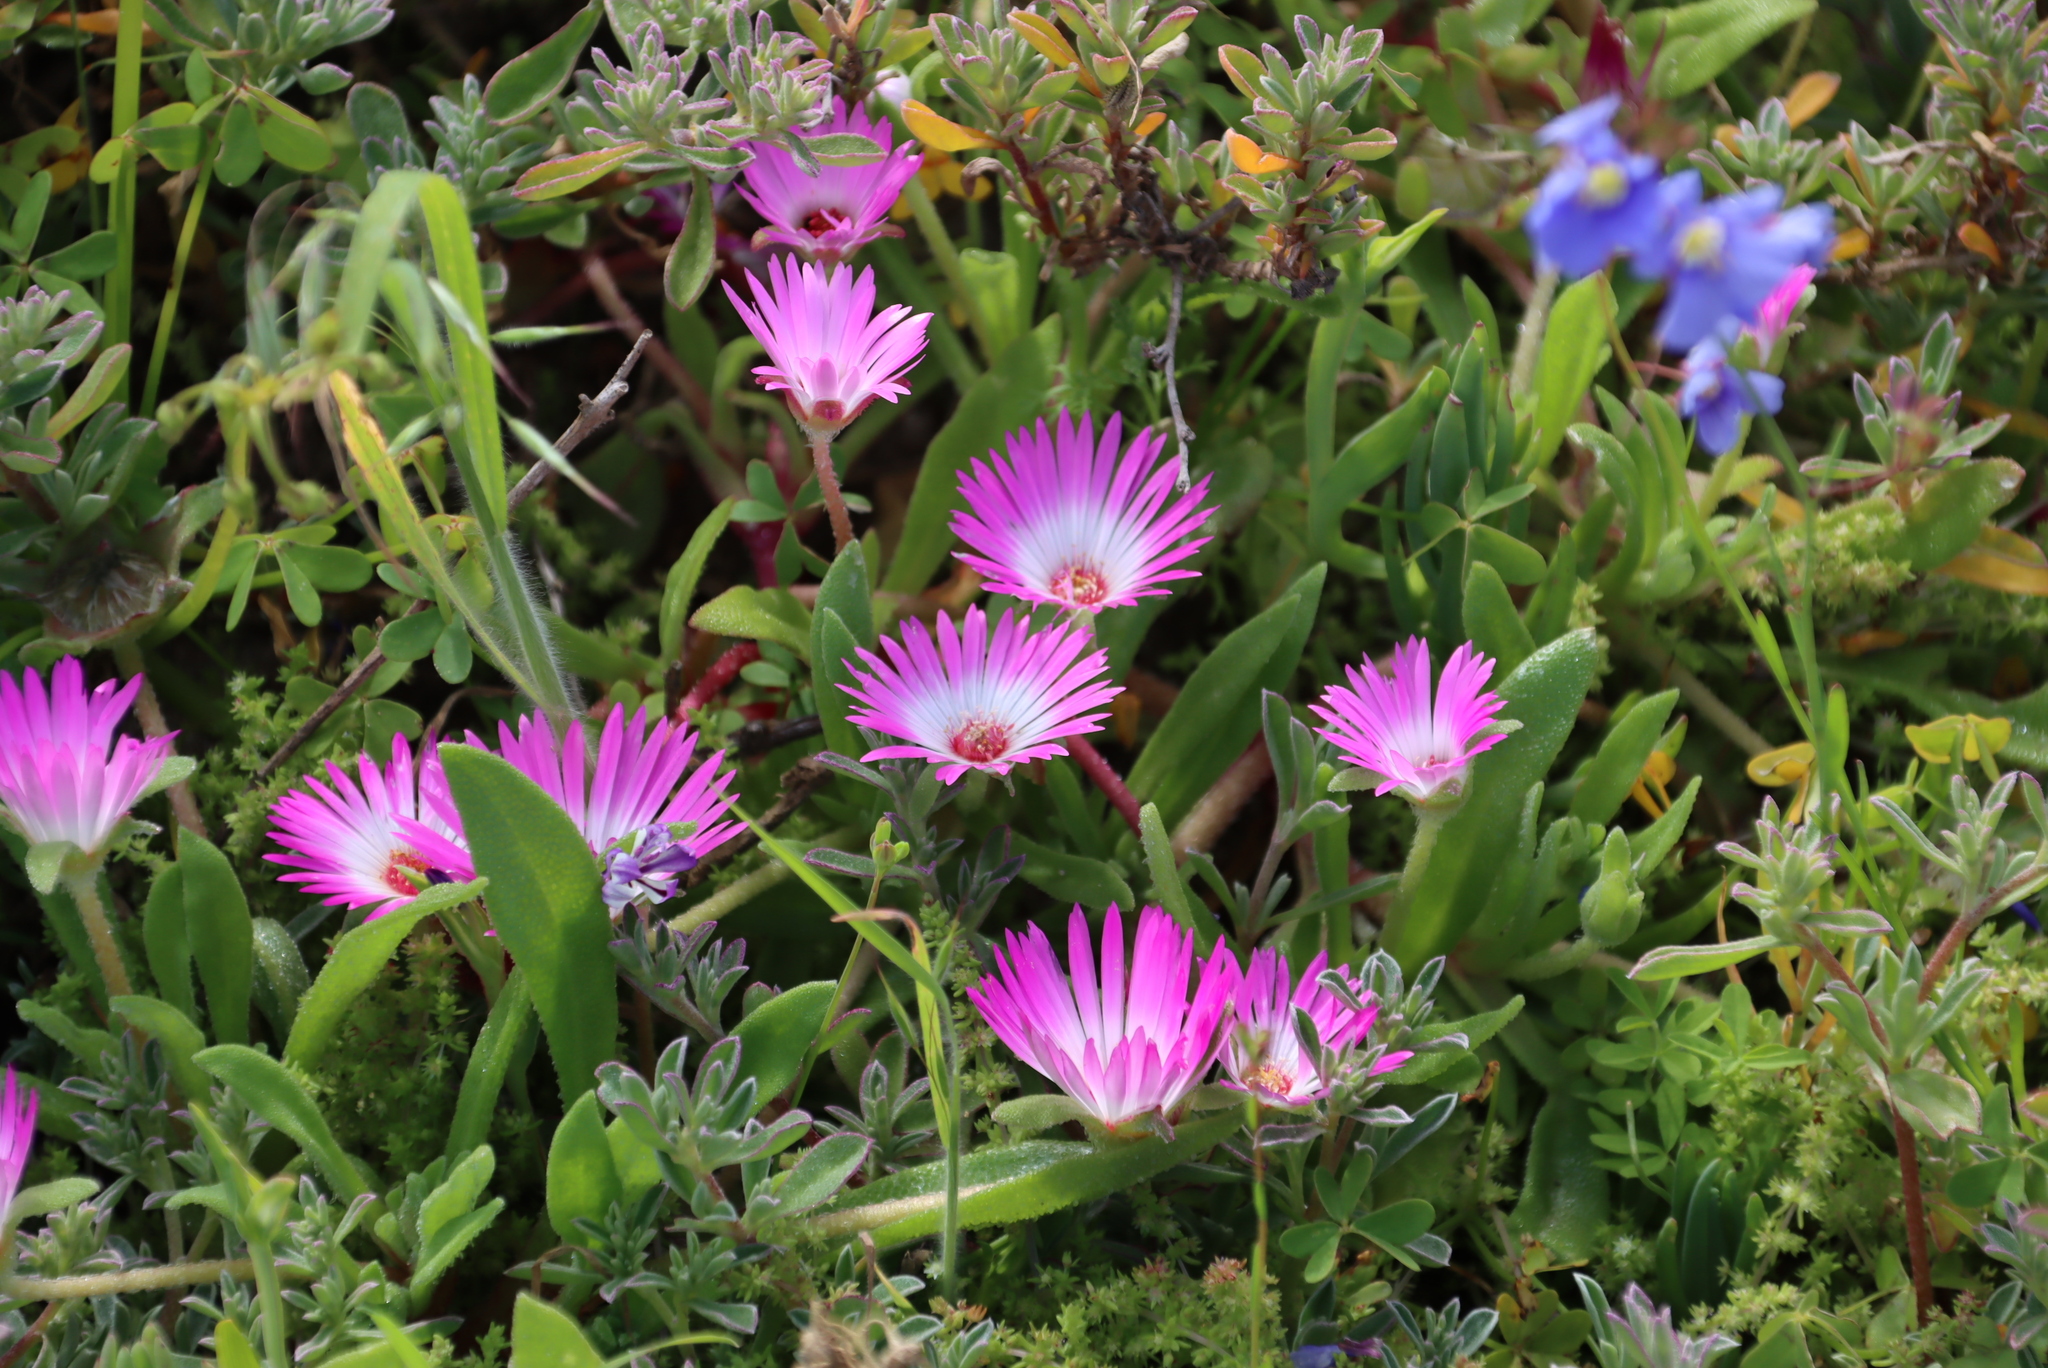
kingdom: Plantae
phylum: Tracheophyta
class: Magnoliopsida
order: Caryophyllales
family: Aizoaceae
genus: Cleretum
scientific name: Cleretum bellidiforme
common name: Livingstone daisy
